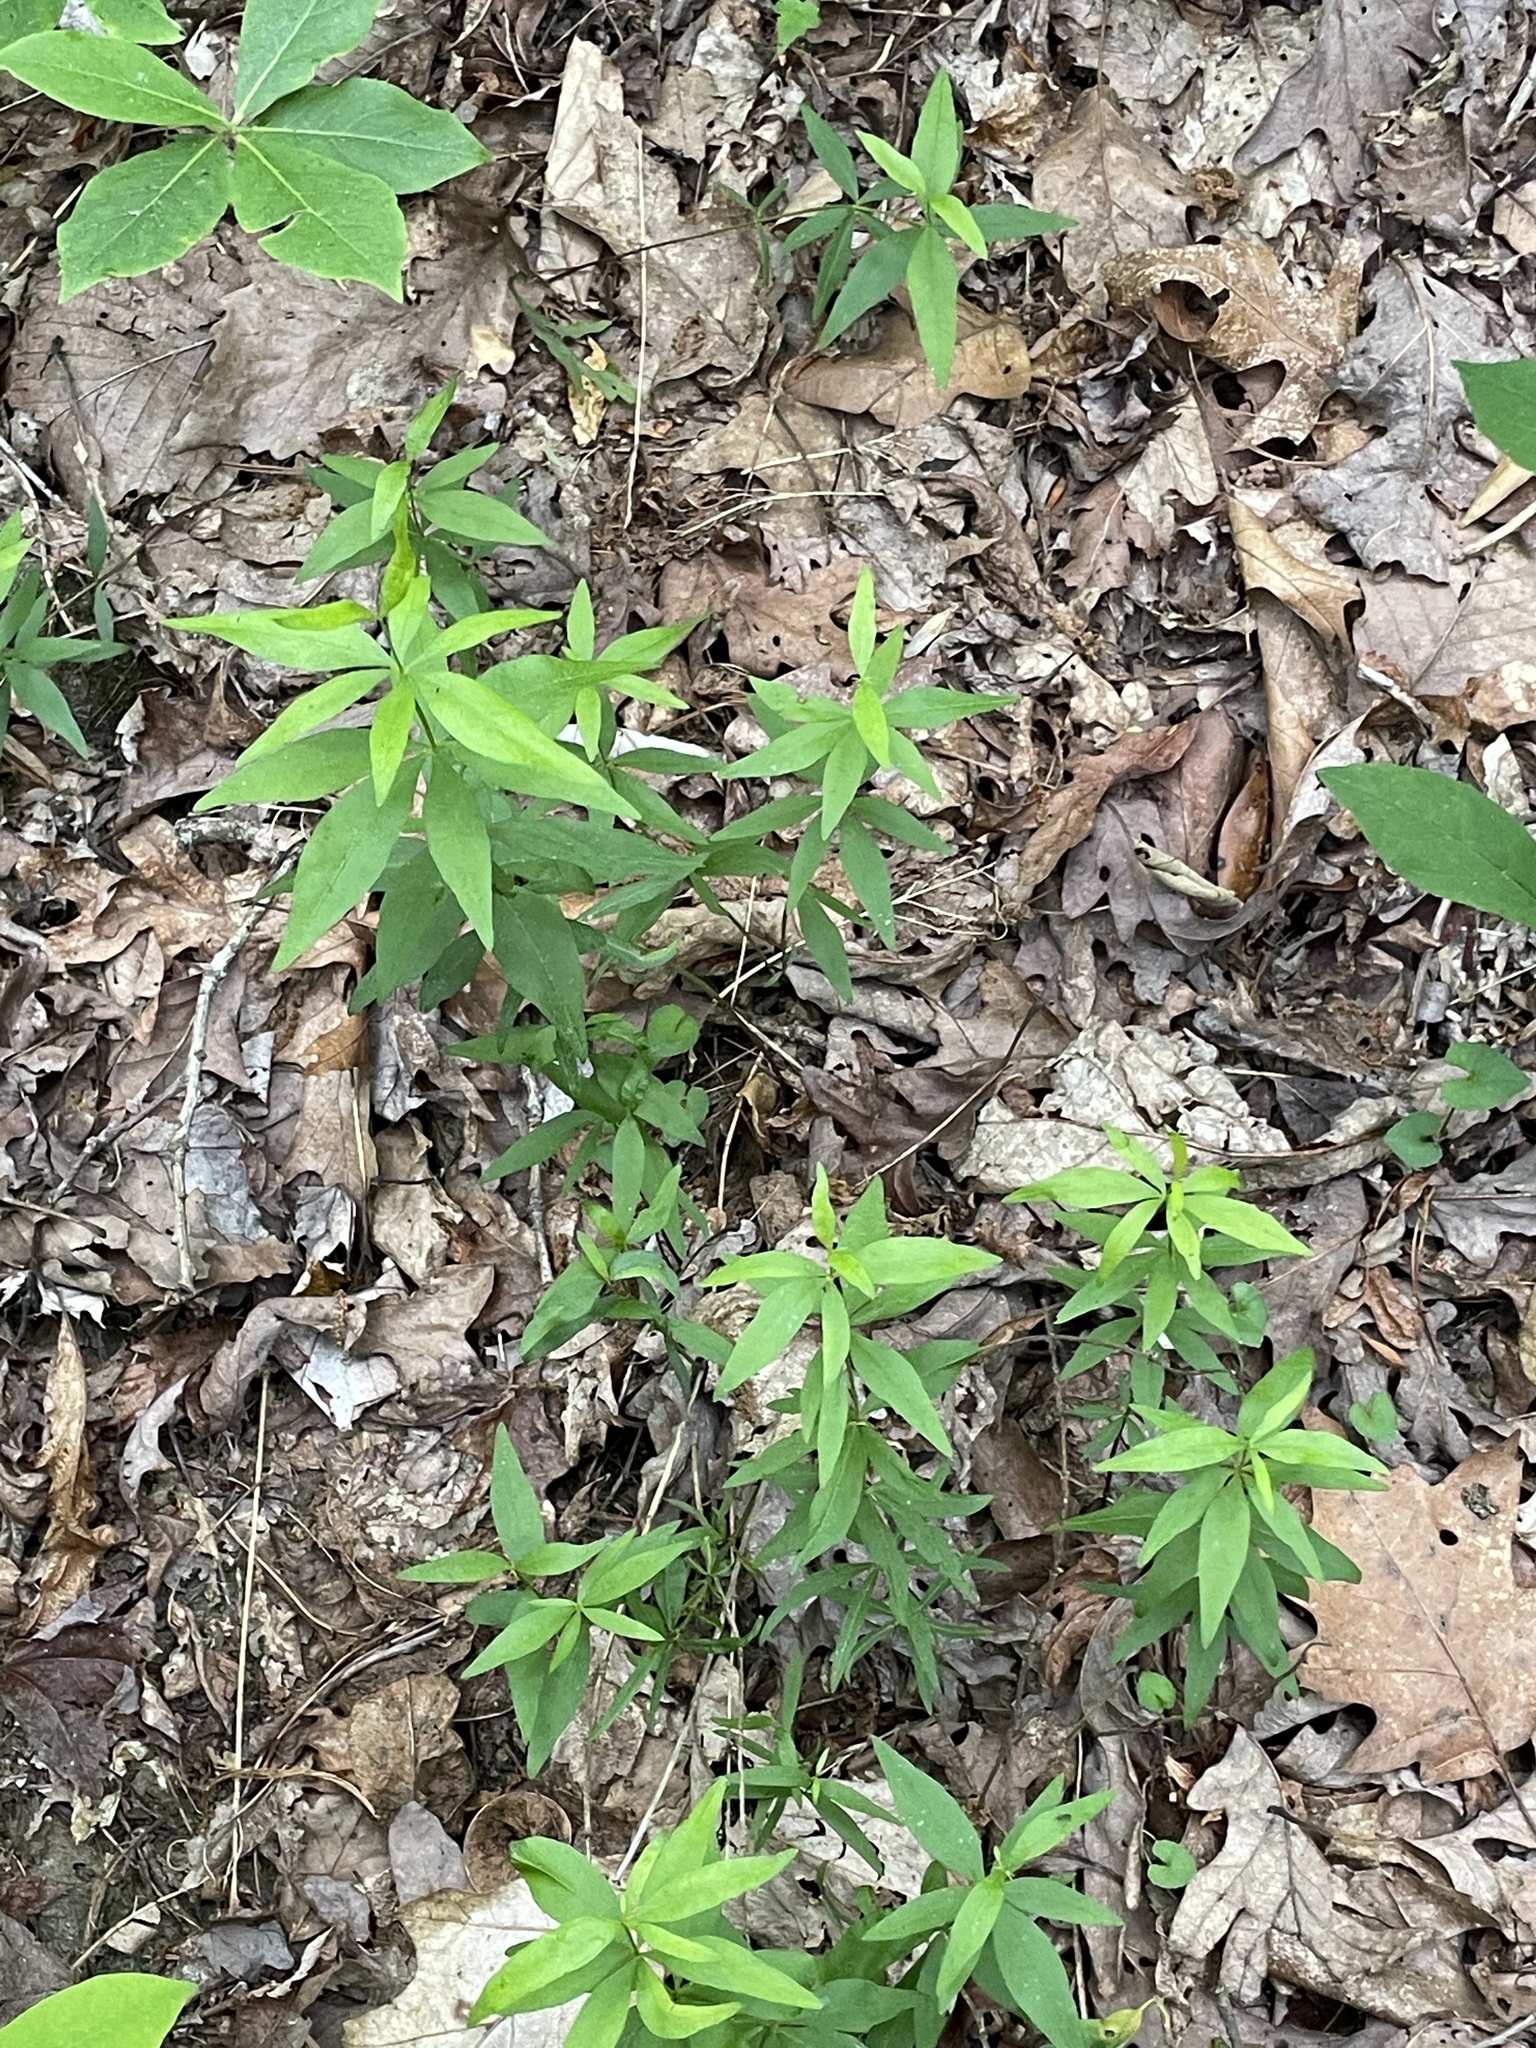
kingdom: Plantae
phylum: Tracheophyta
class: Magnoliopsida
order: Asterales
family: Asteraceae
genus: Coreopsis
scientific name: Coreopsis major
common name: Forest tickseed
